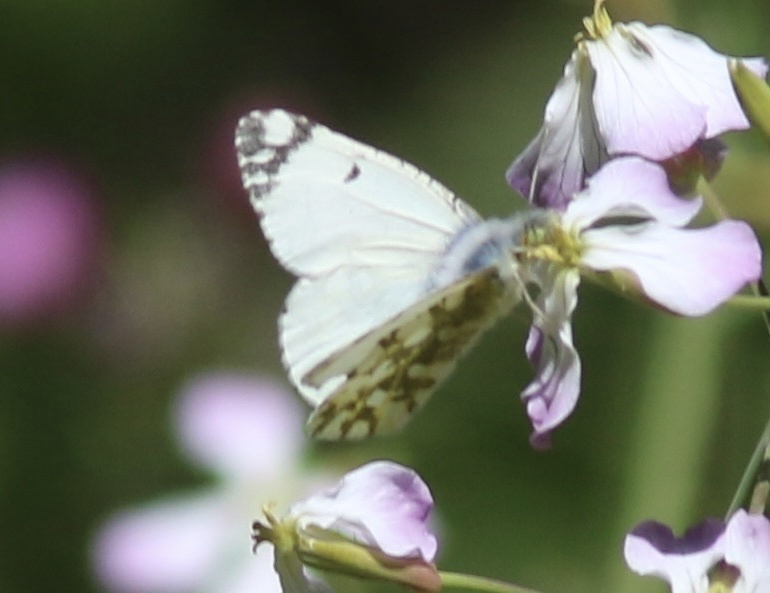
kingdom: Animalia
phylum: Arthropoda
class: Insecta
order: Lepidoptera
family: Pieridae
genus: Euchloe
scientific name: Euchloe ausonides
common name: Creamy marblewing
